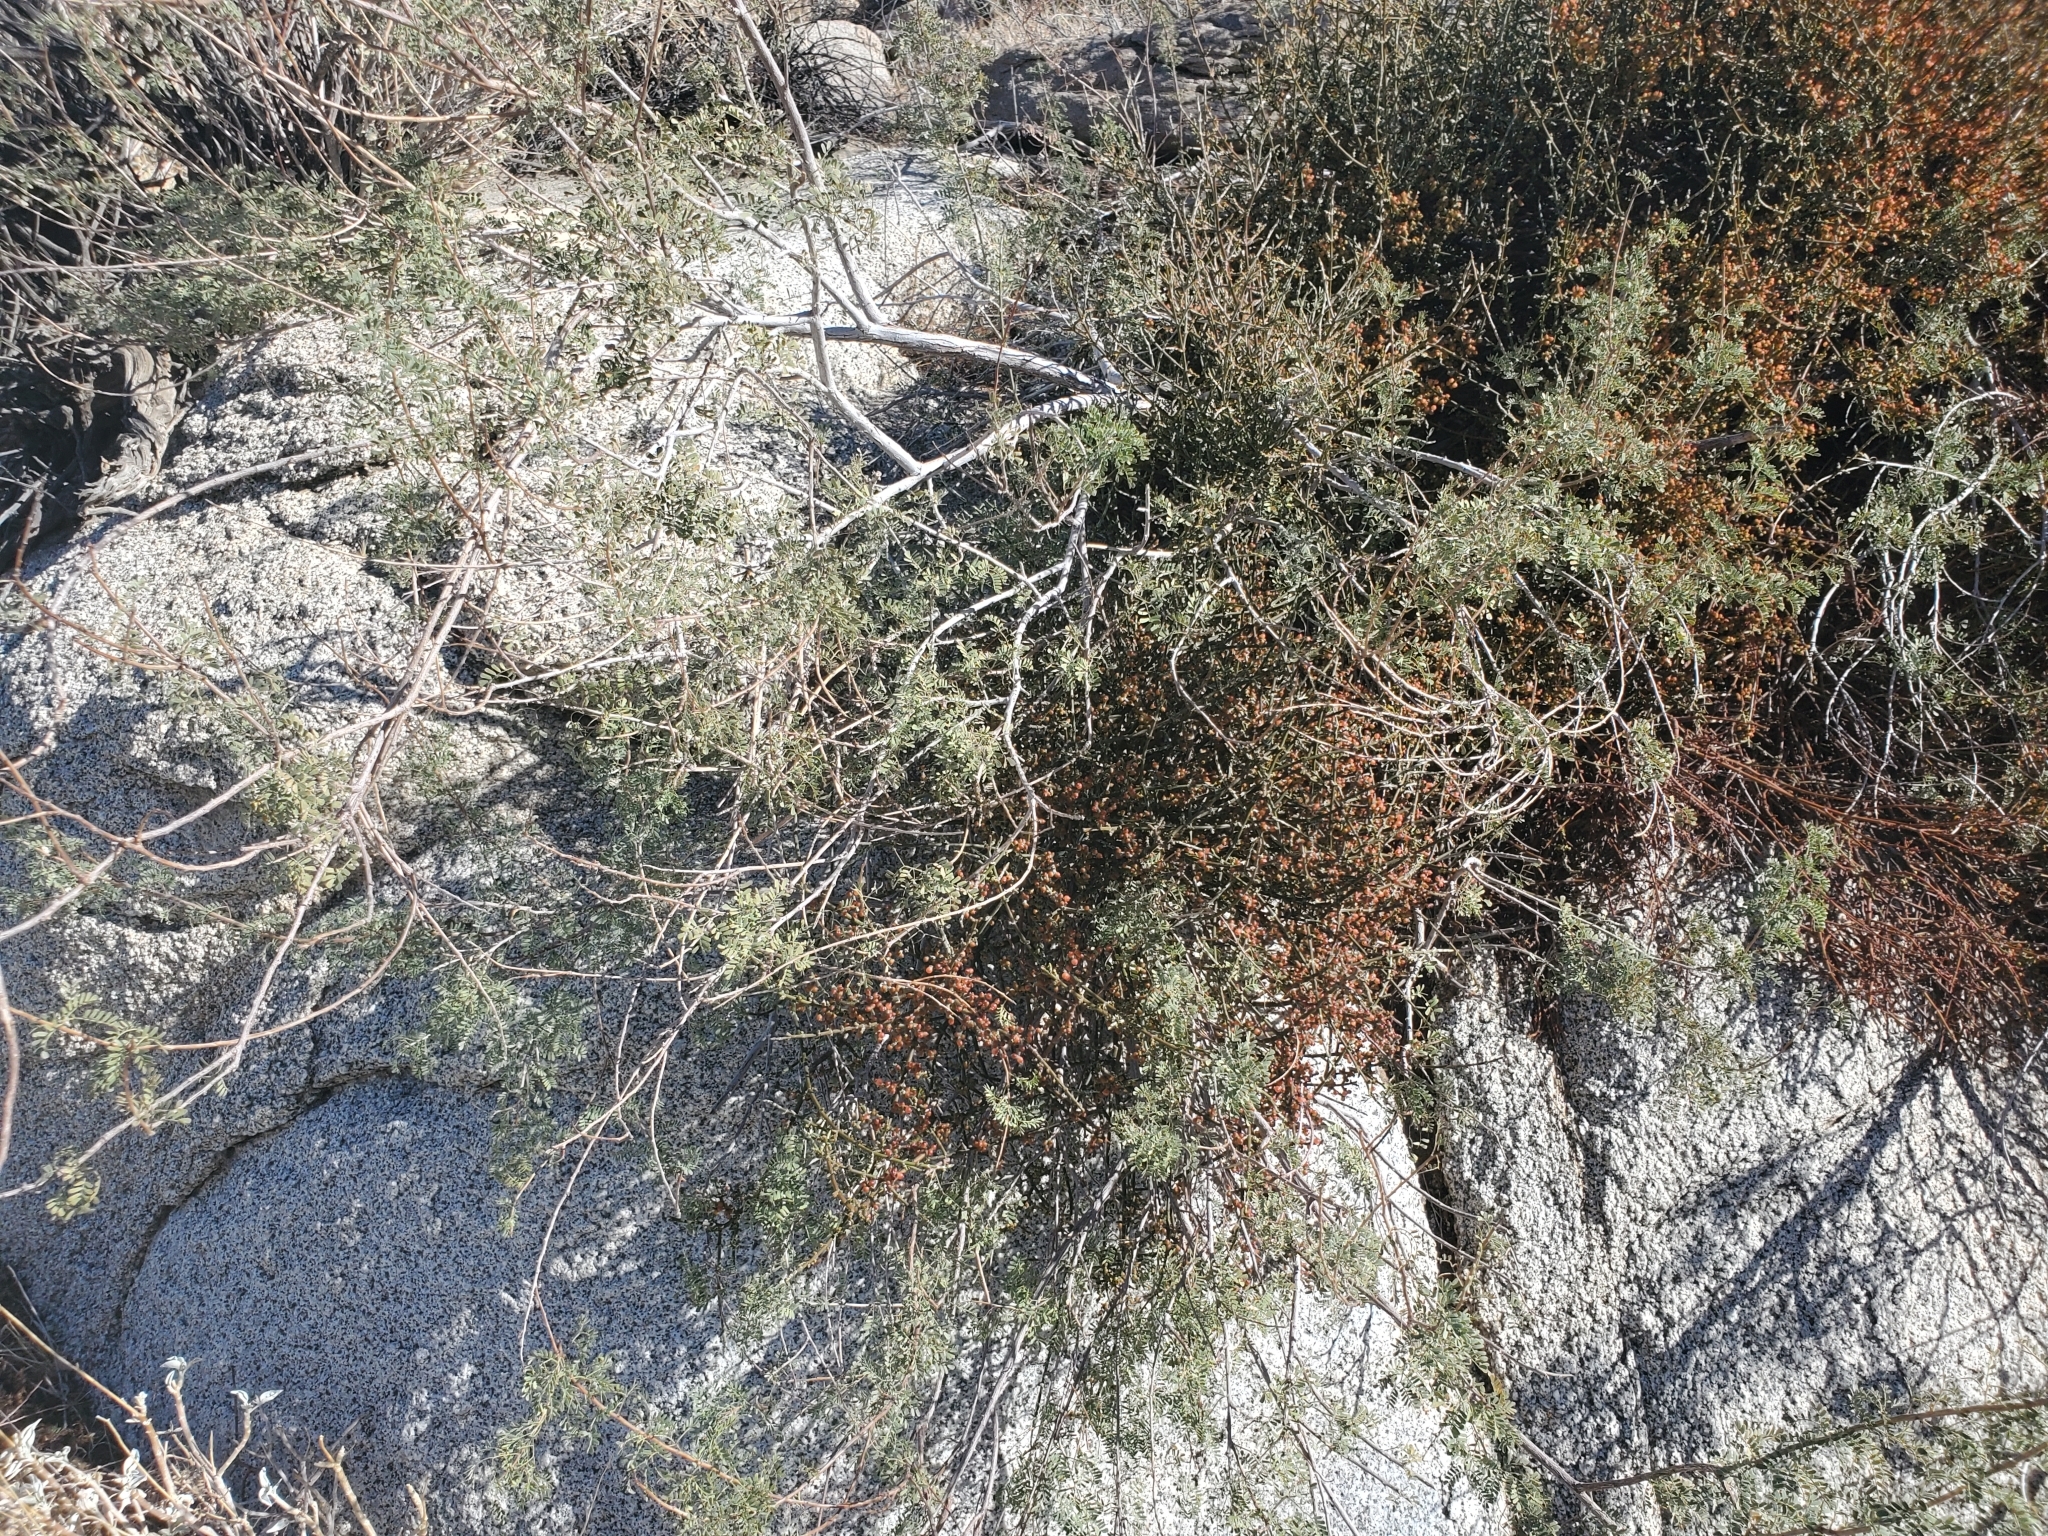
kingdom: Plantae
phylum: Tracheophyta
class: Magnoliopsida
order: Santalales
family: Viscaceae
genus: Phoradendron
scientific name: Phoradendron californicum
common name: Acacia mistletoe
